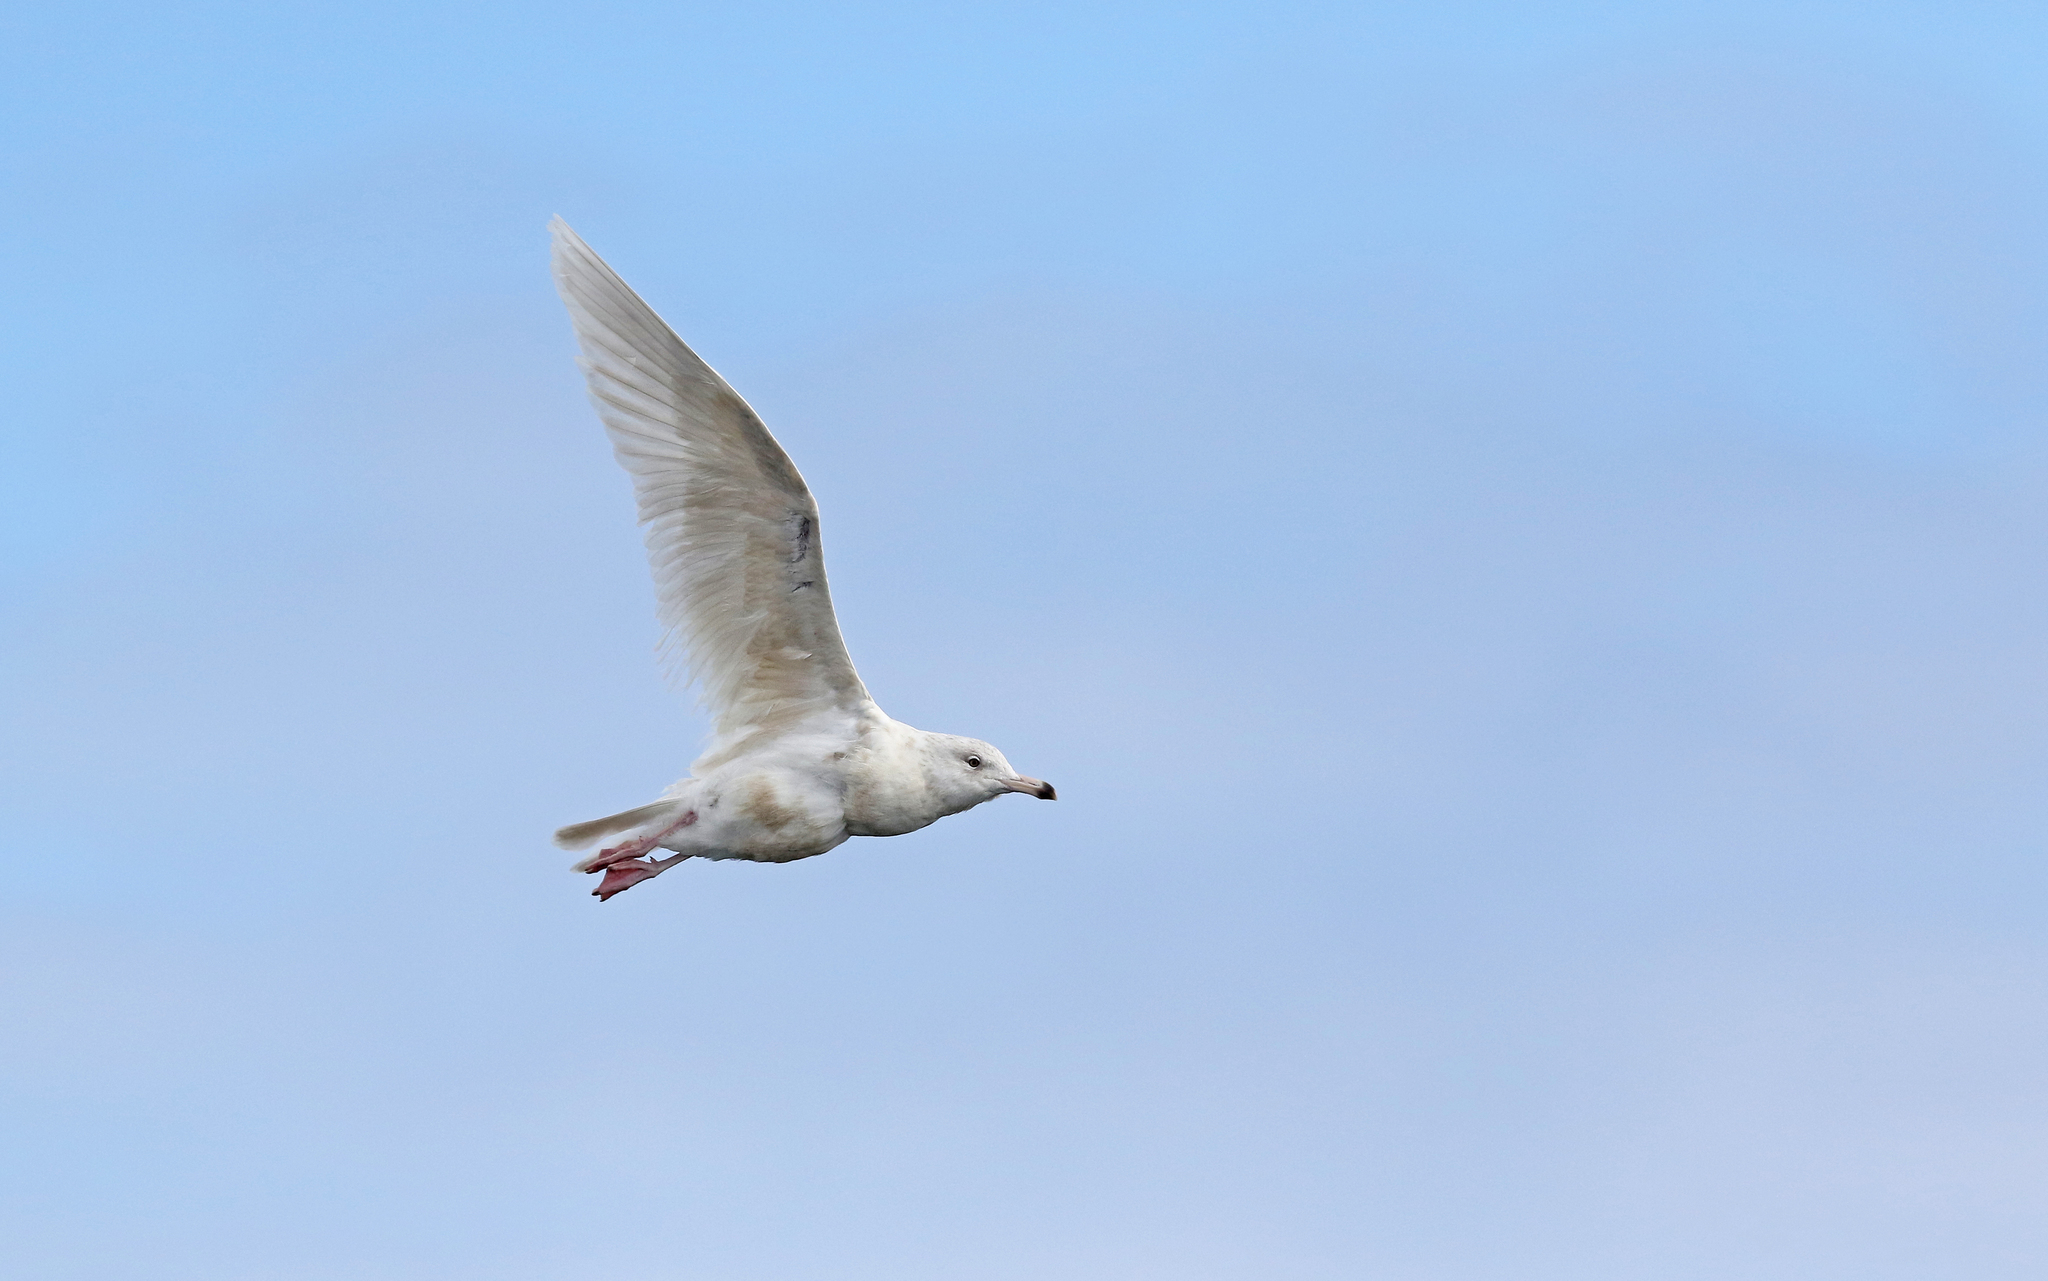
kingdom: Animalia
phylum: Chordata
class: Aves
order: Charadriiformes
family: Laridae
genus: Larus
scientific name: Larus hyperboreus
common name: Glaucous gull
